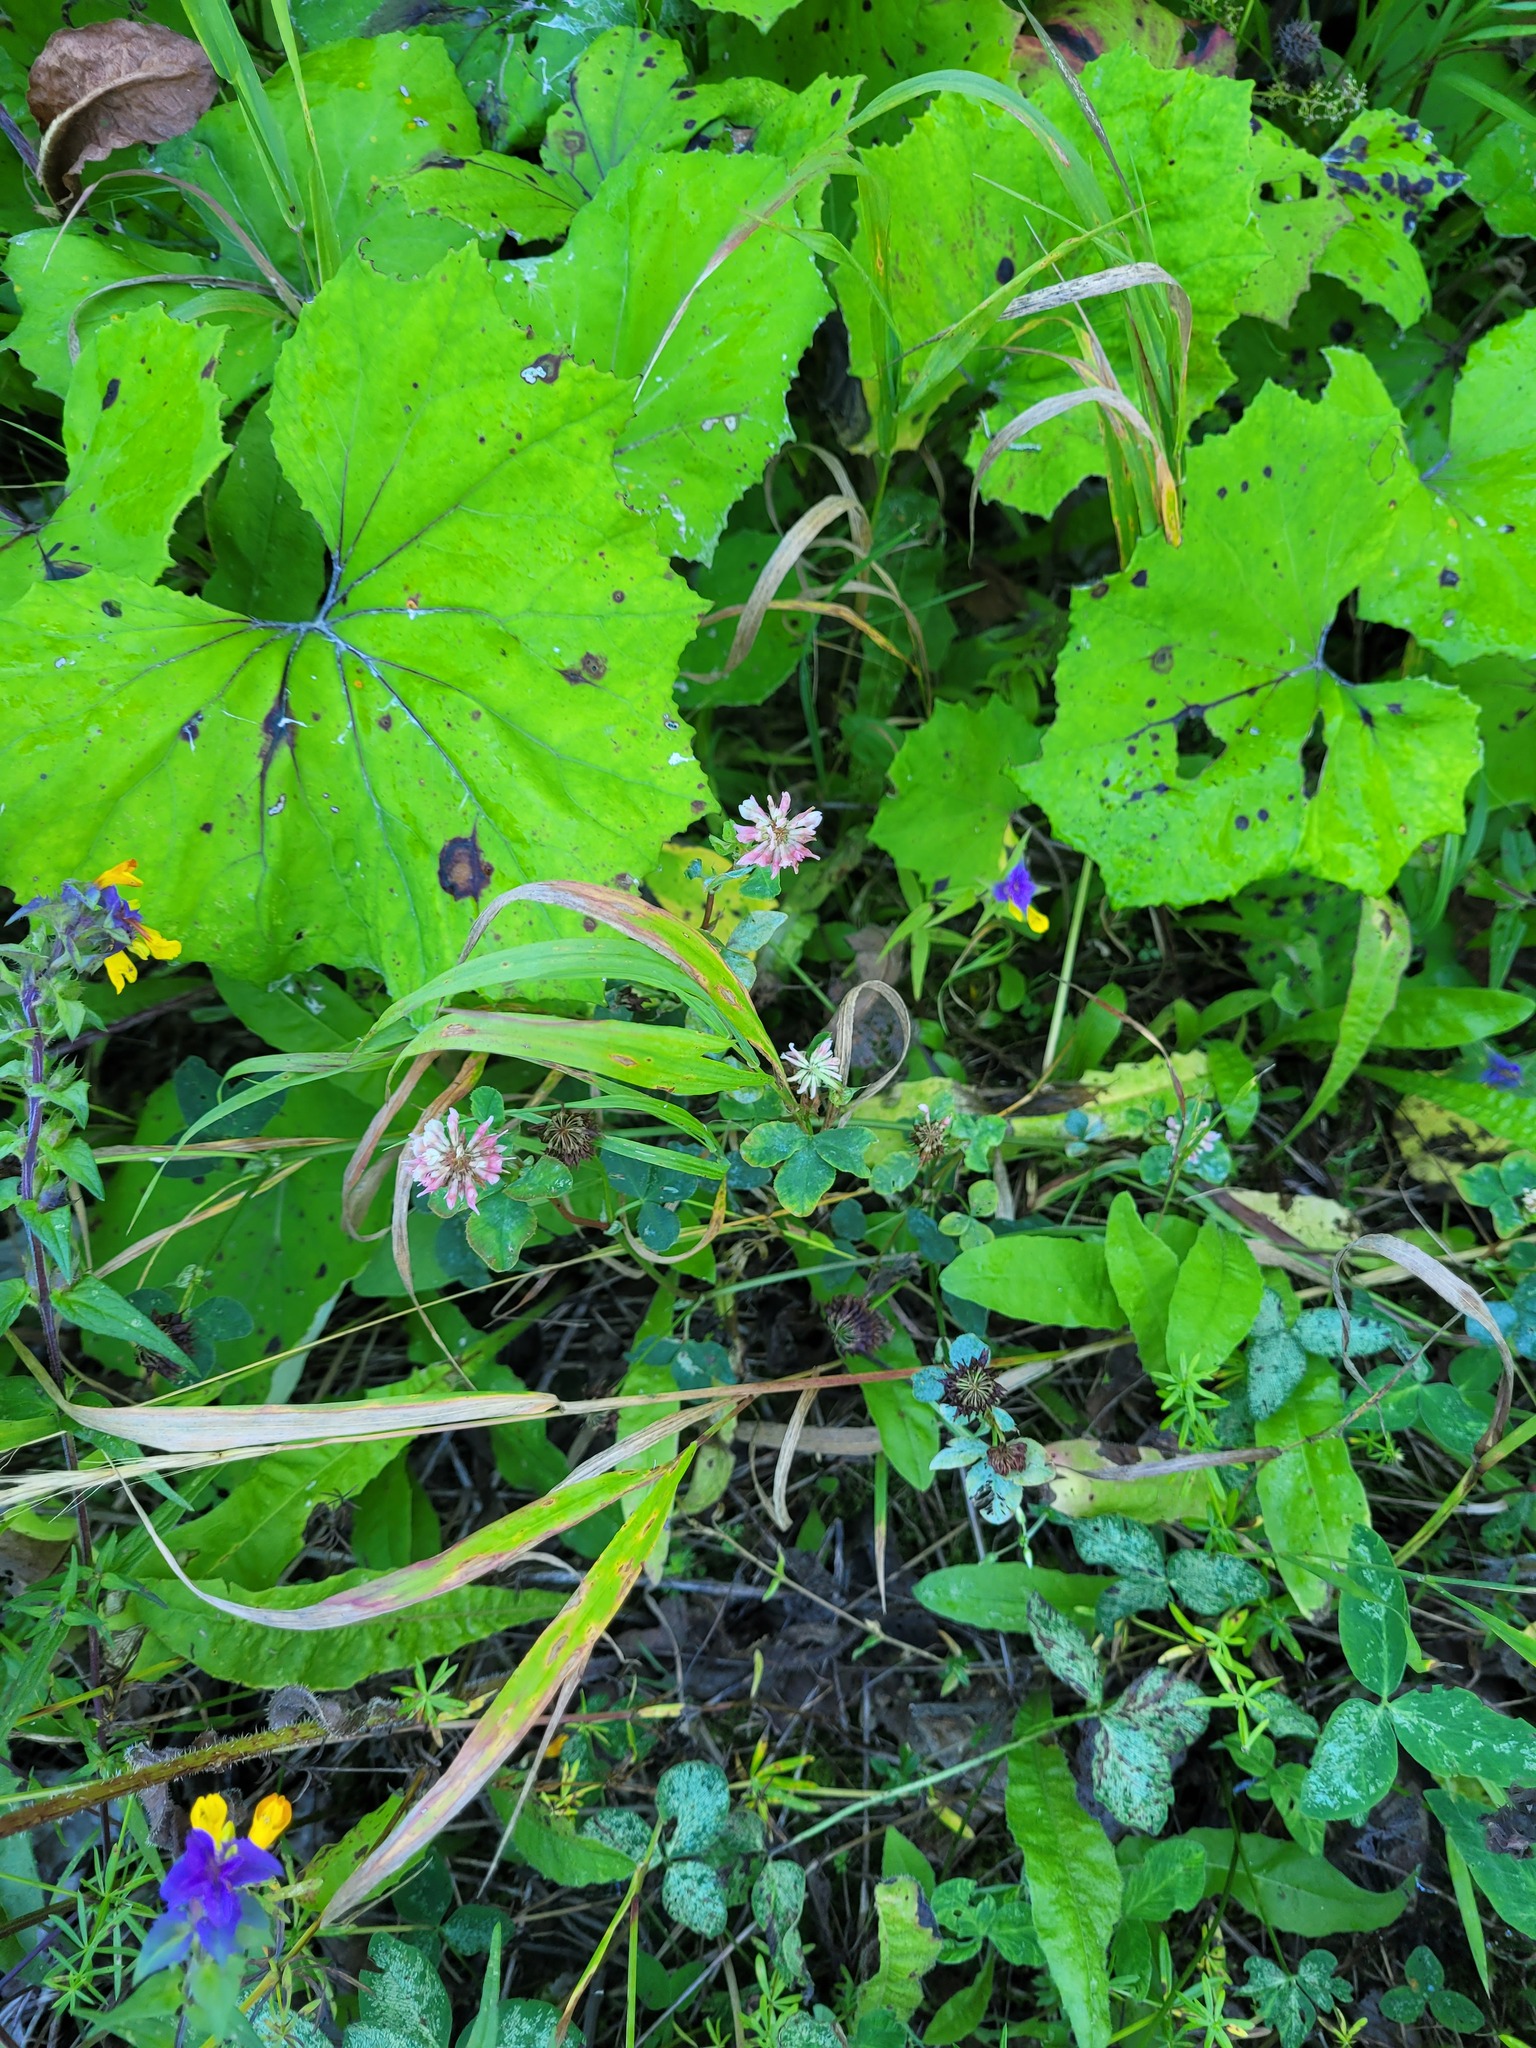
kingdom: Plantae
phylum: Tracheophyta
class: Magnoliopsida
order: Fabales
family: Fabaceae
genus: Trifolium
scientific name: Trifolium hybridum
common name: Alsike clover
